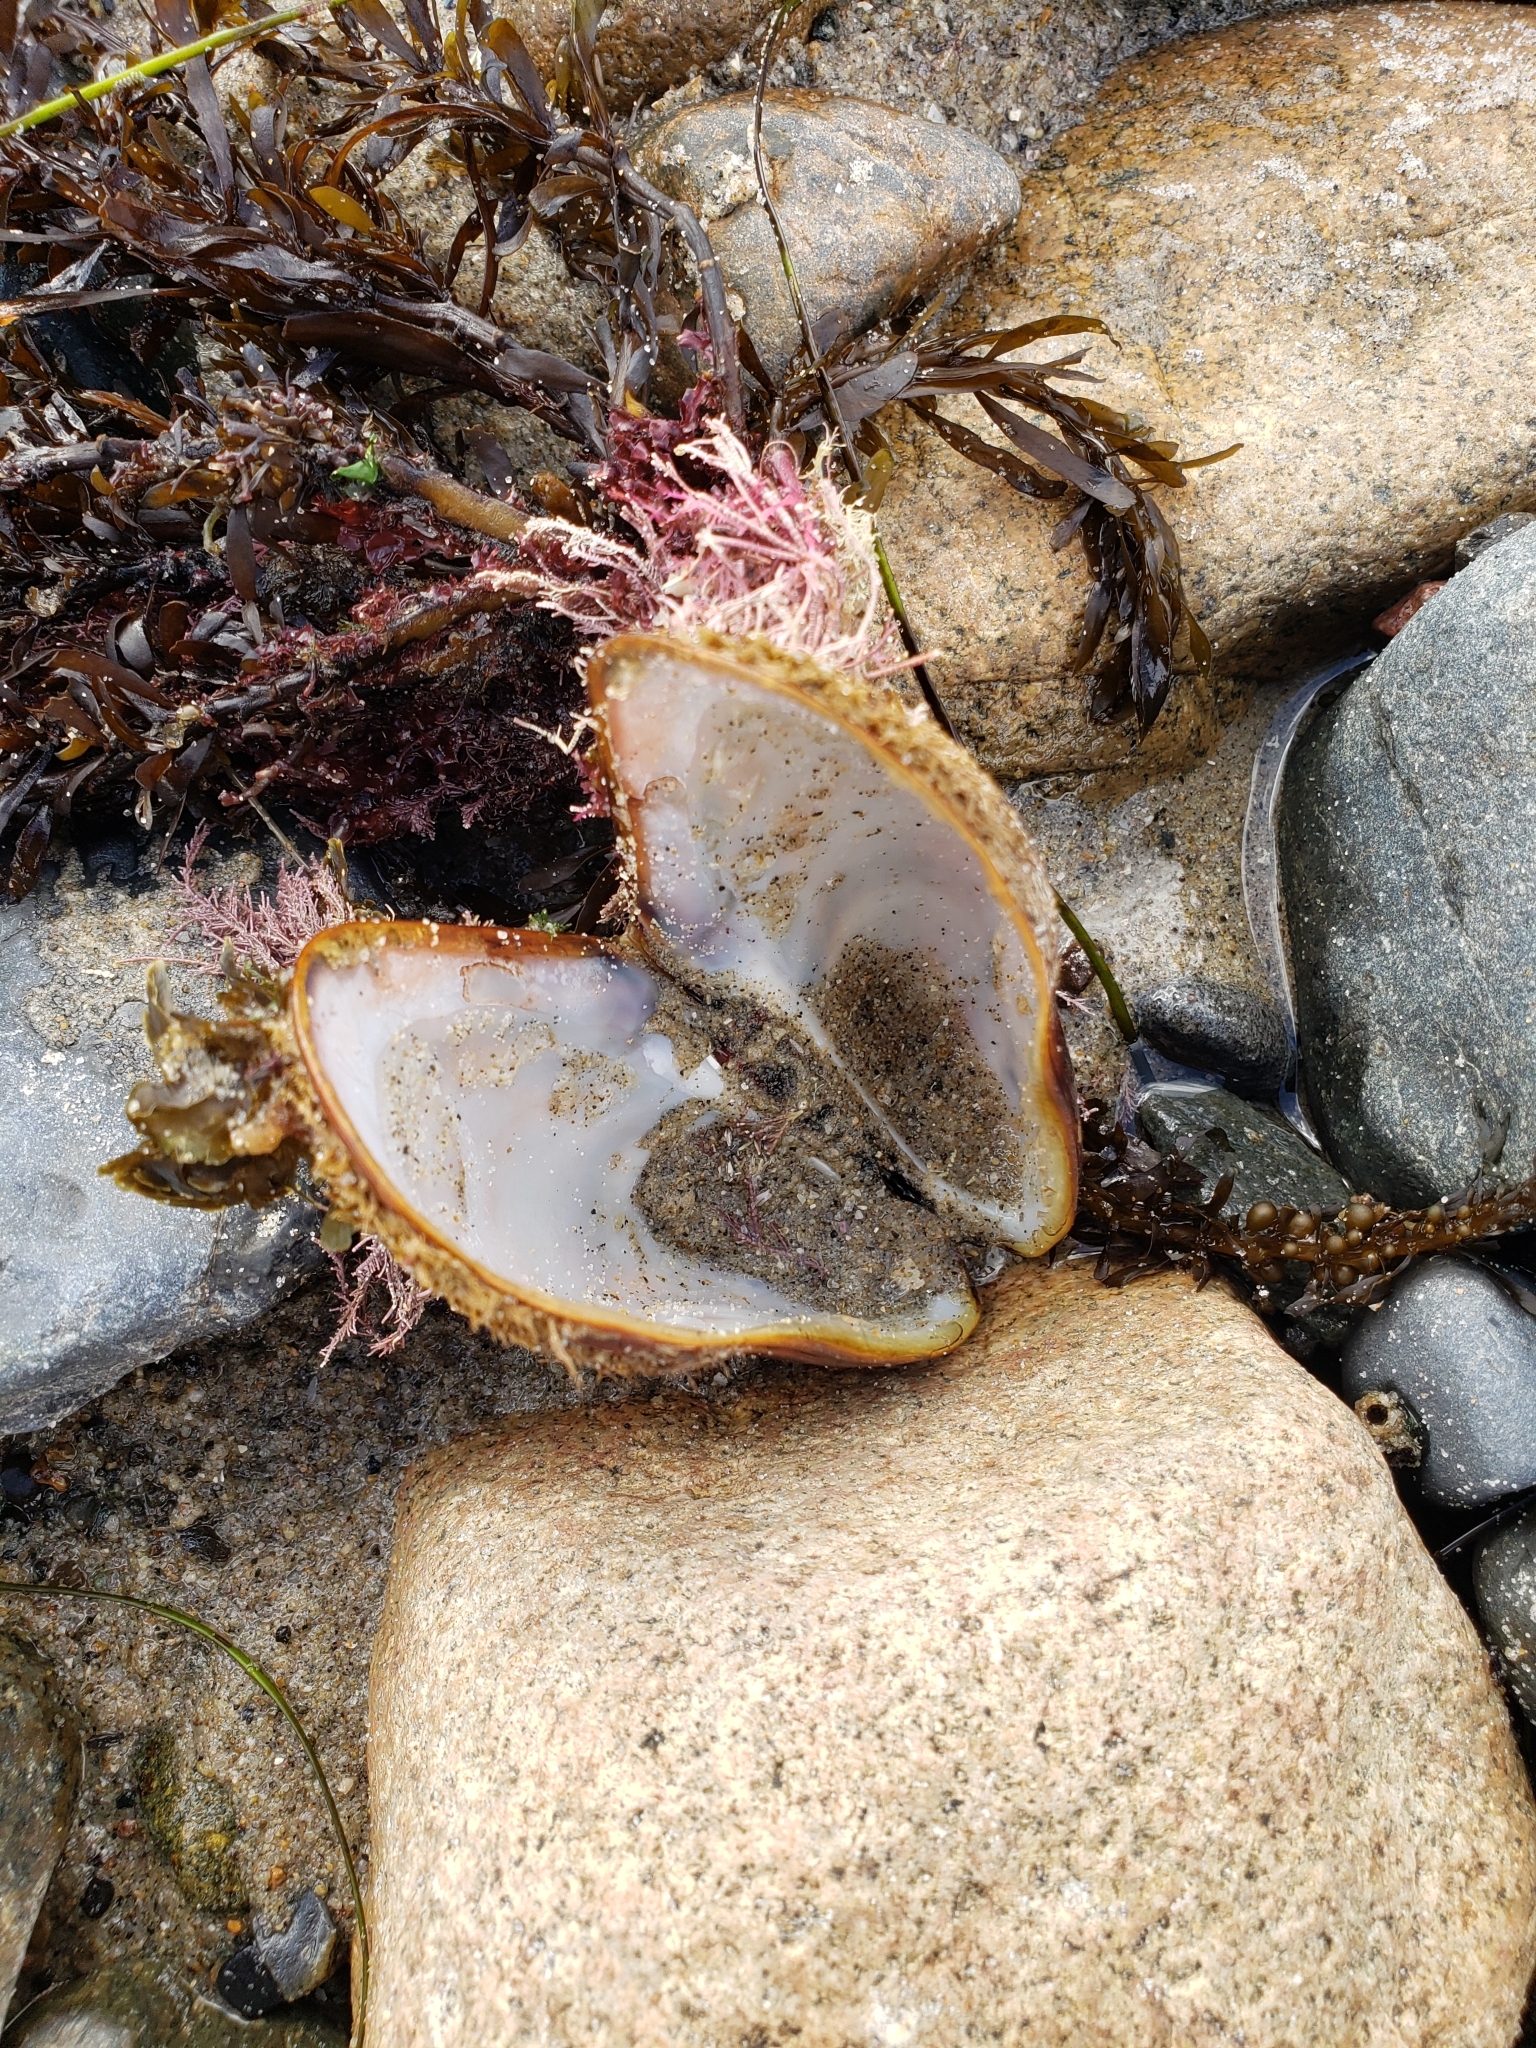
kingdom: Animalia
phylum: Mollusca
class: Bivalvia
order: Mytilida
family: Mytilidae
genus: Modiolus
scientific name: Modiolus capax
